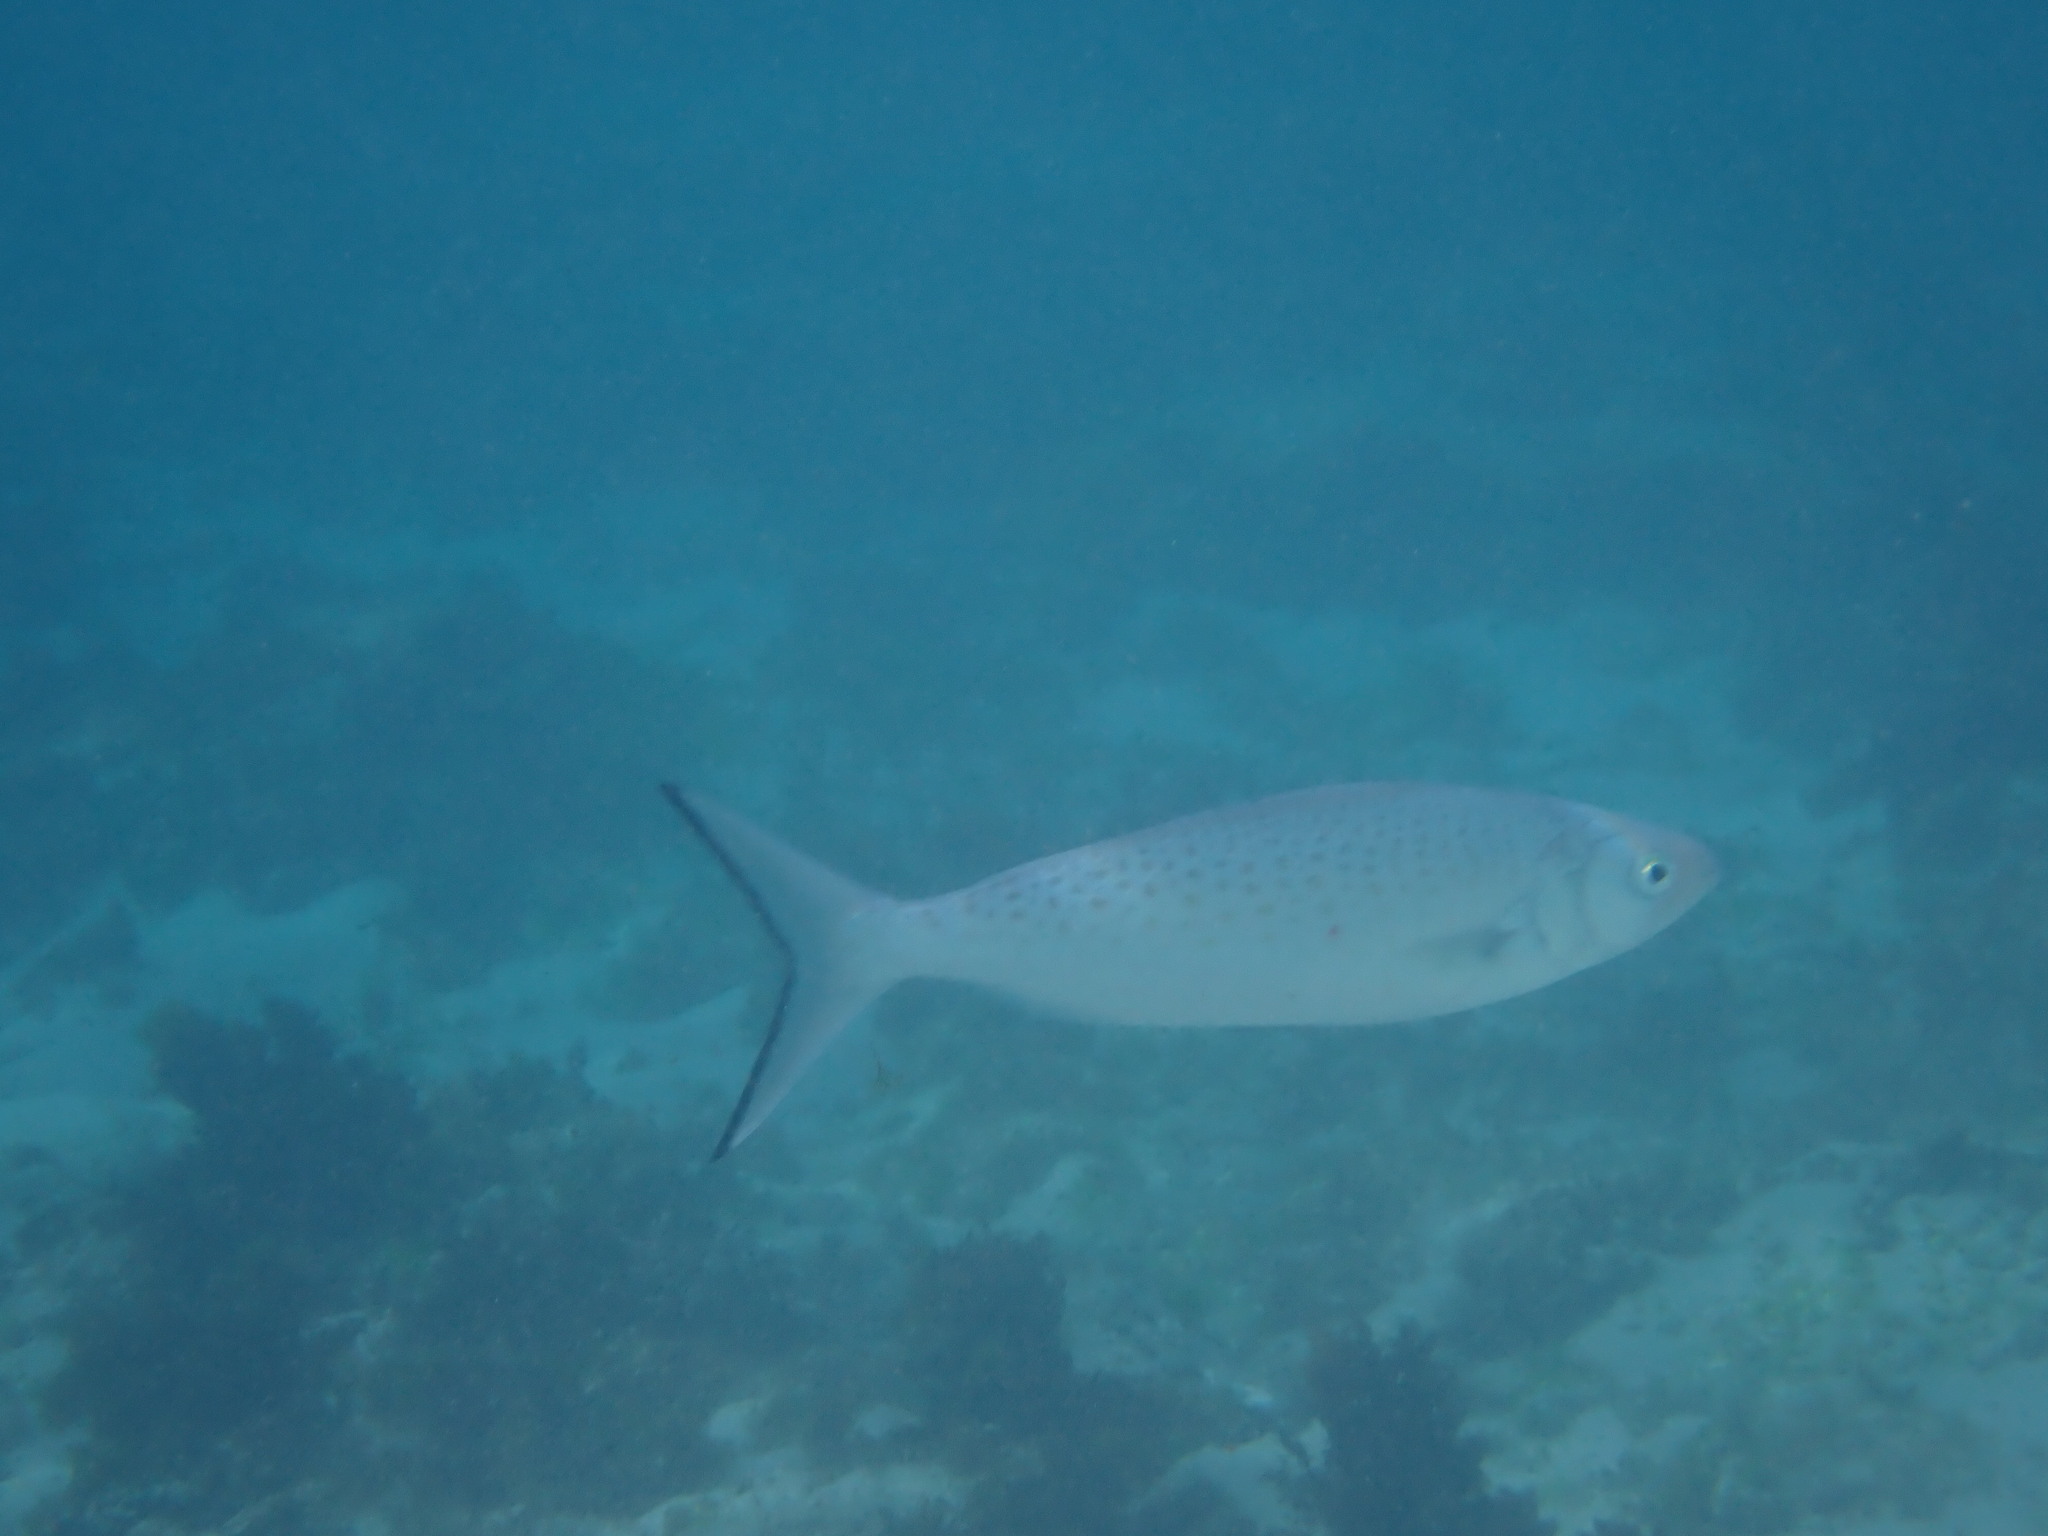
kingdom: Animalia
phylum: Chordata
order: Perciformes
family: Arripidae
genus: Arripis
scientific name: Arripis xylabion
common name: Giant kahawai
